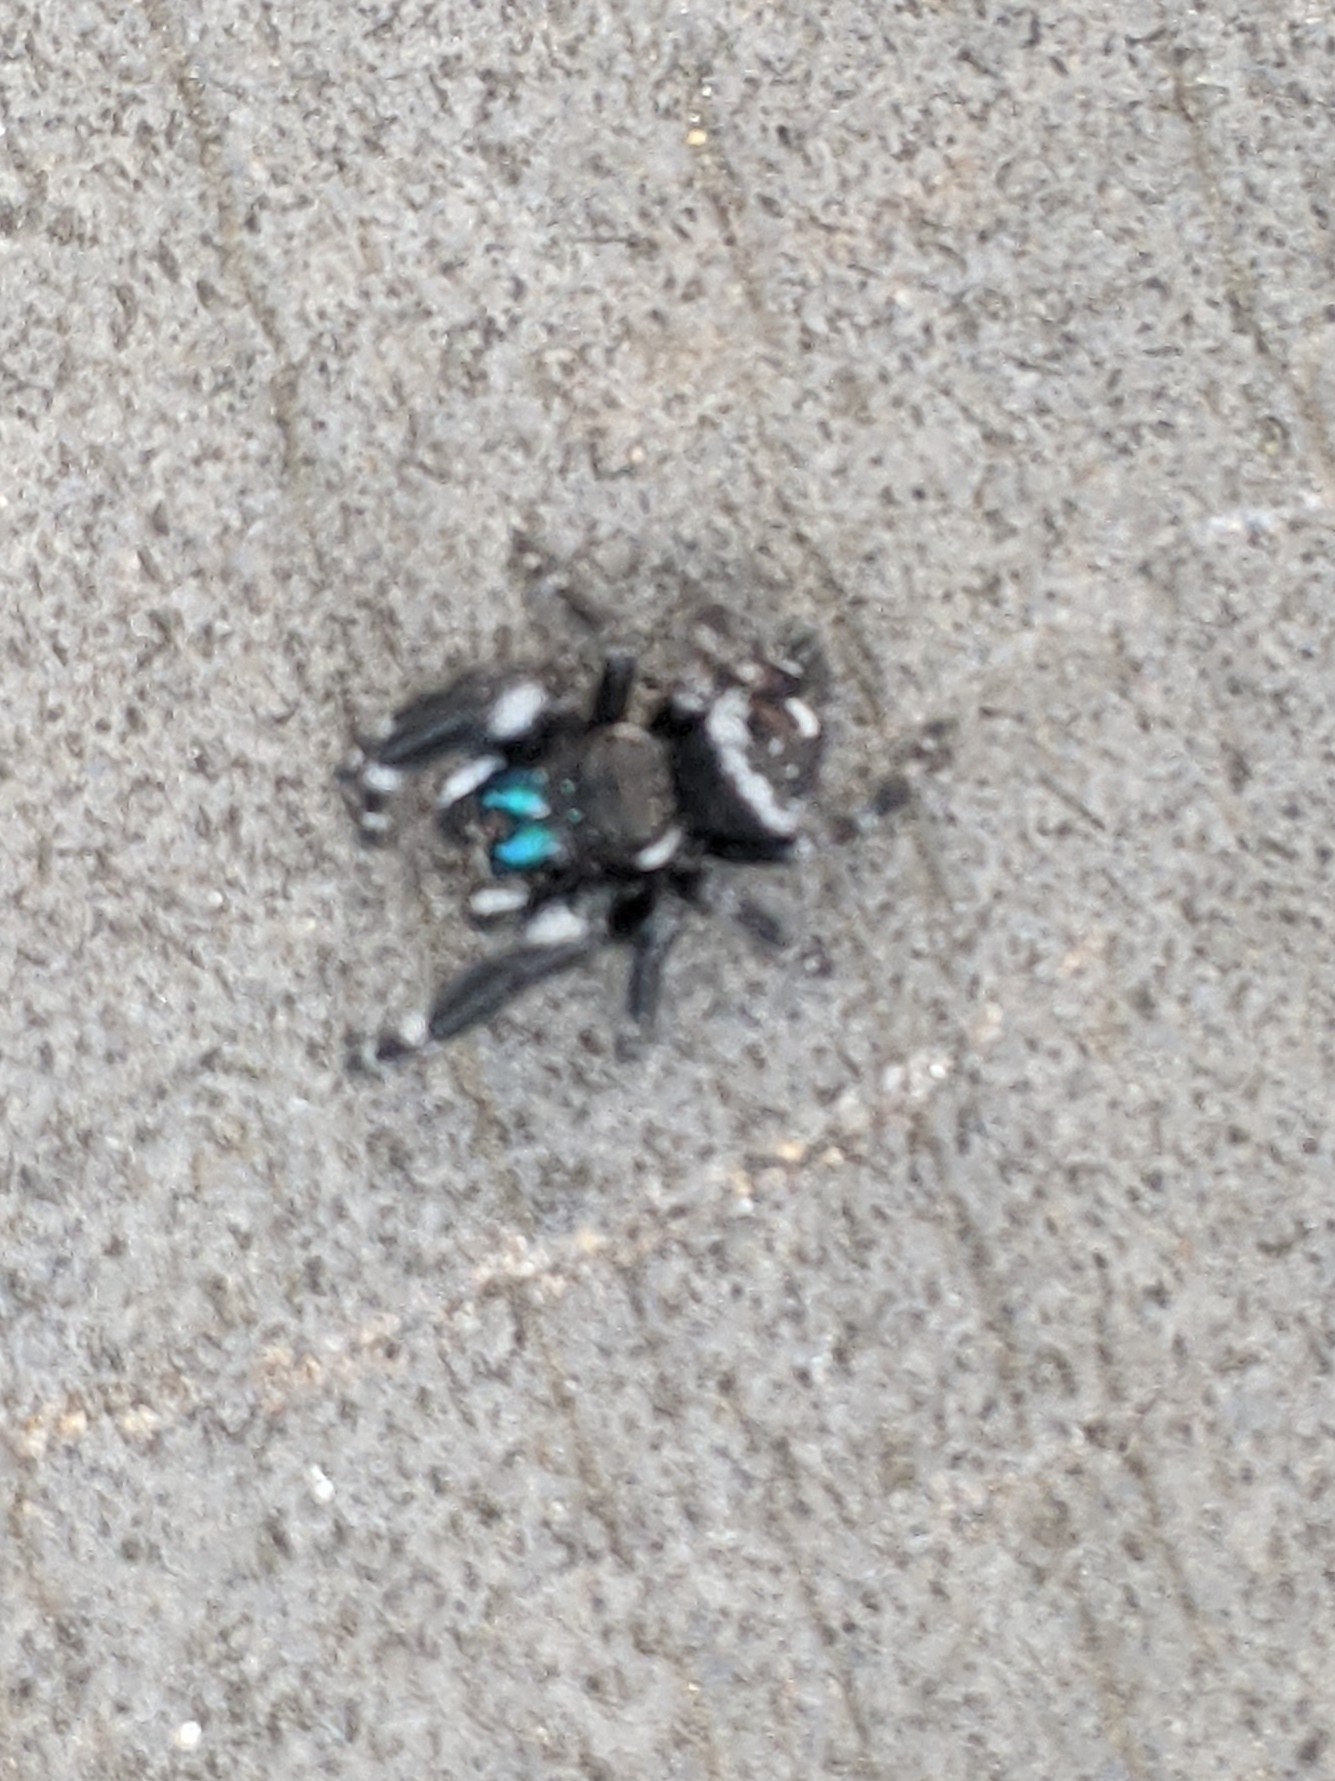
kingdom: Animalia
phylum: Arthropoda
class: Arachnida
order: Araneae
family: Salticidae
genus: Phidippus
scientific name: Phidippus audax
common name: Bold jumper
